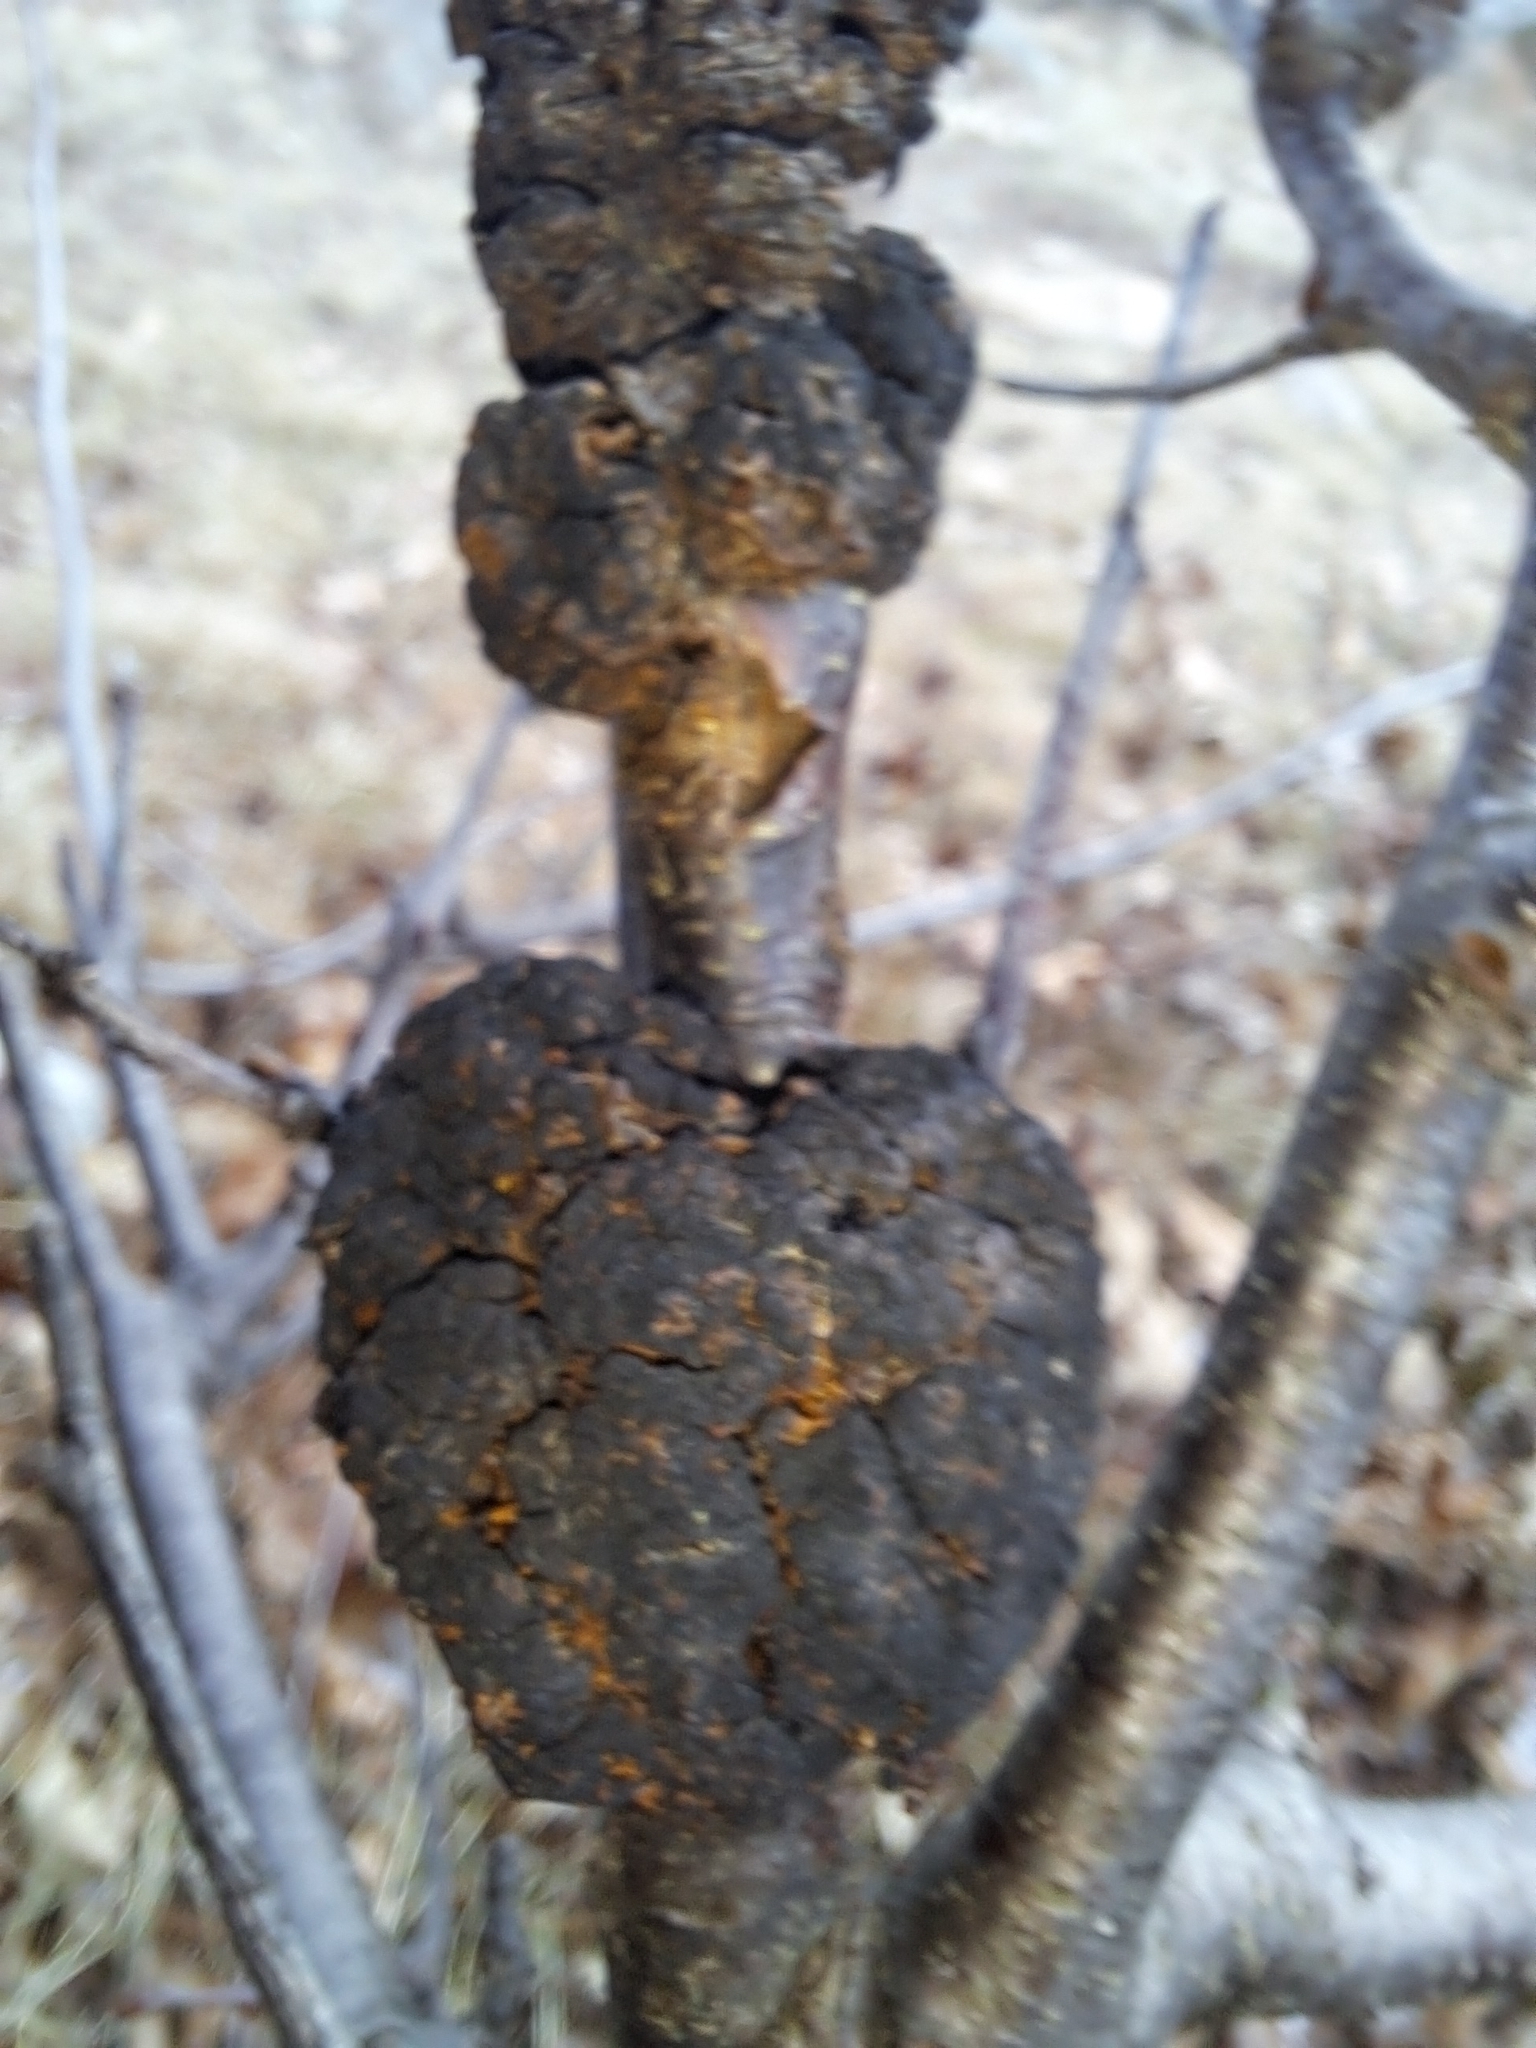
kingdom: Fungi
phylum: Ascomycota
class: Dothideomycetes
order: Venturiales
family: Venturiaceae
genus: Apiosporina
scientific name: Apiosporina morbosa
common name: Black knot
